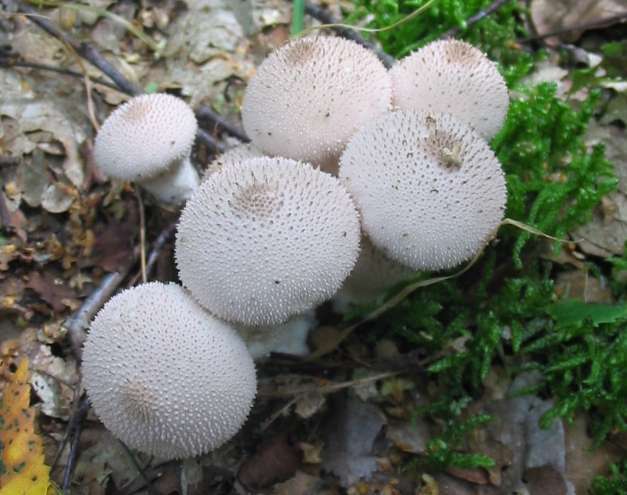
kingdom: Fungi
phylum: Basidiomycota
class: Agaricomycetes
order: Agaricales
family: Lycoperdaceae
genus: Lycoperdon
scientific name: Lycoperdon perlatum
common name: Common puffball
